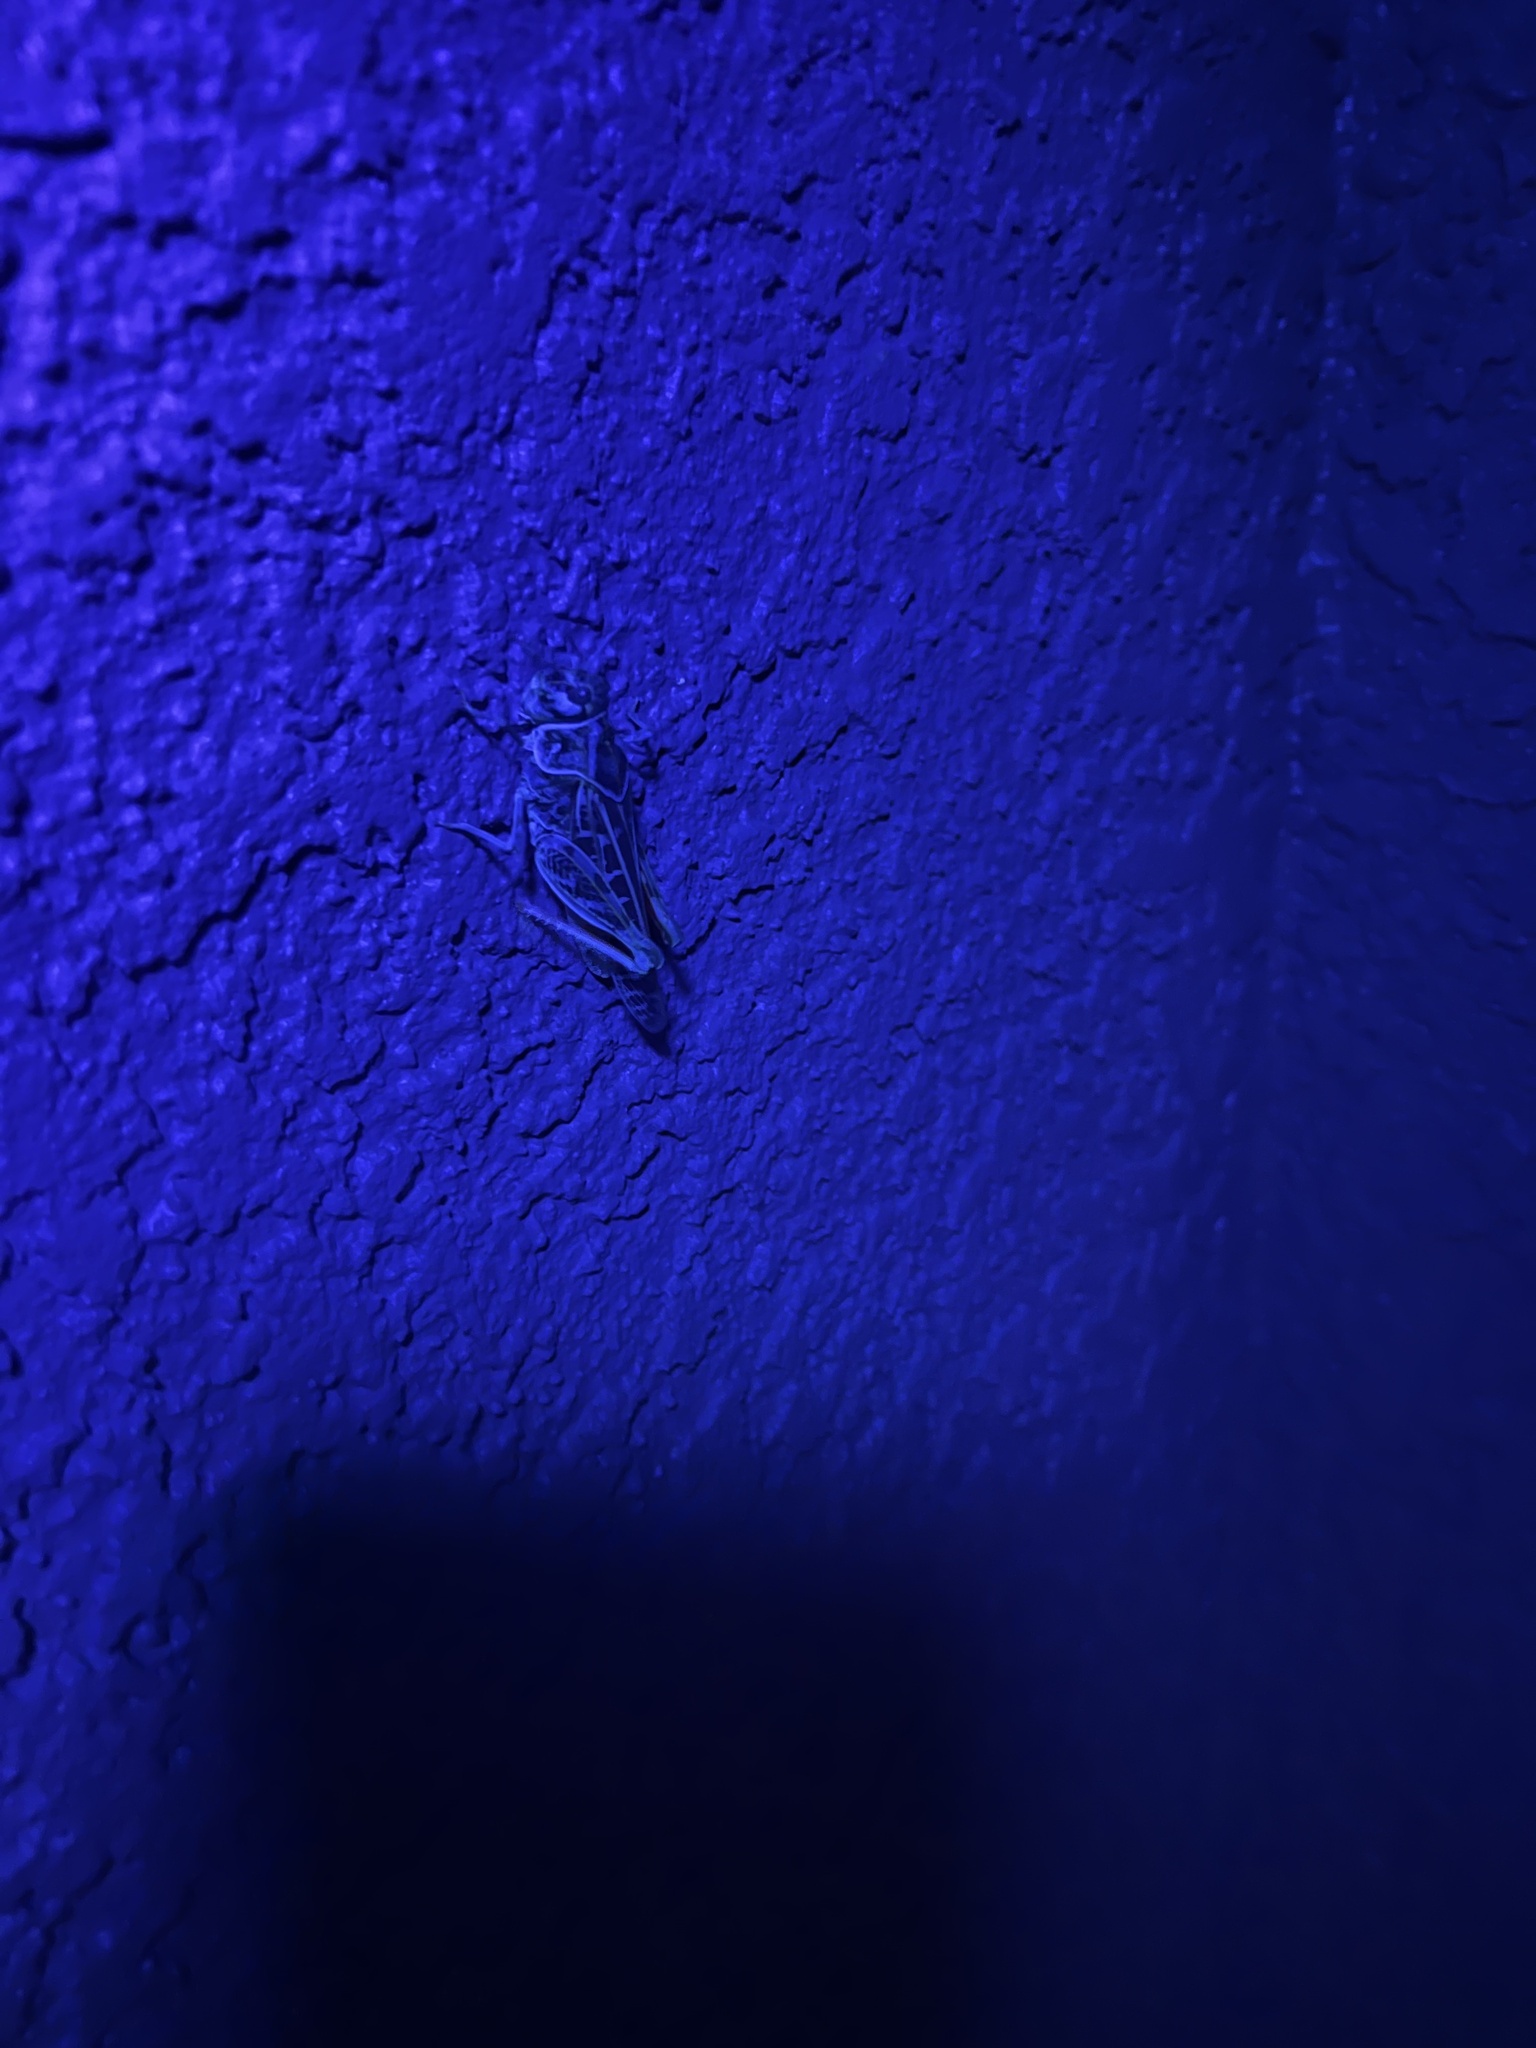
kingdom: Animalia
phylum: Arthropoda
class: Insecta
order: Orthoptera
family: Acrididae
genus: Xanthippus
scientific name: Xanthippus corallipes
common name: Redshanked grasshopper
